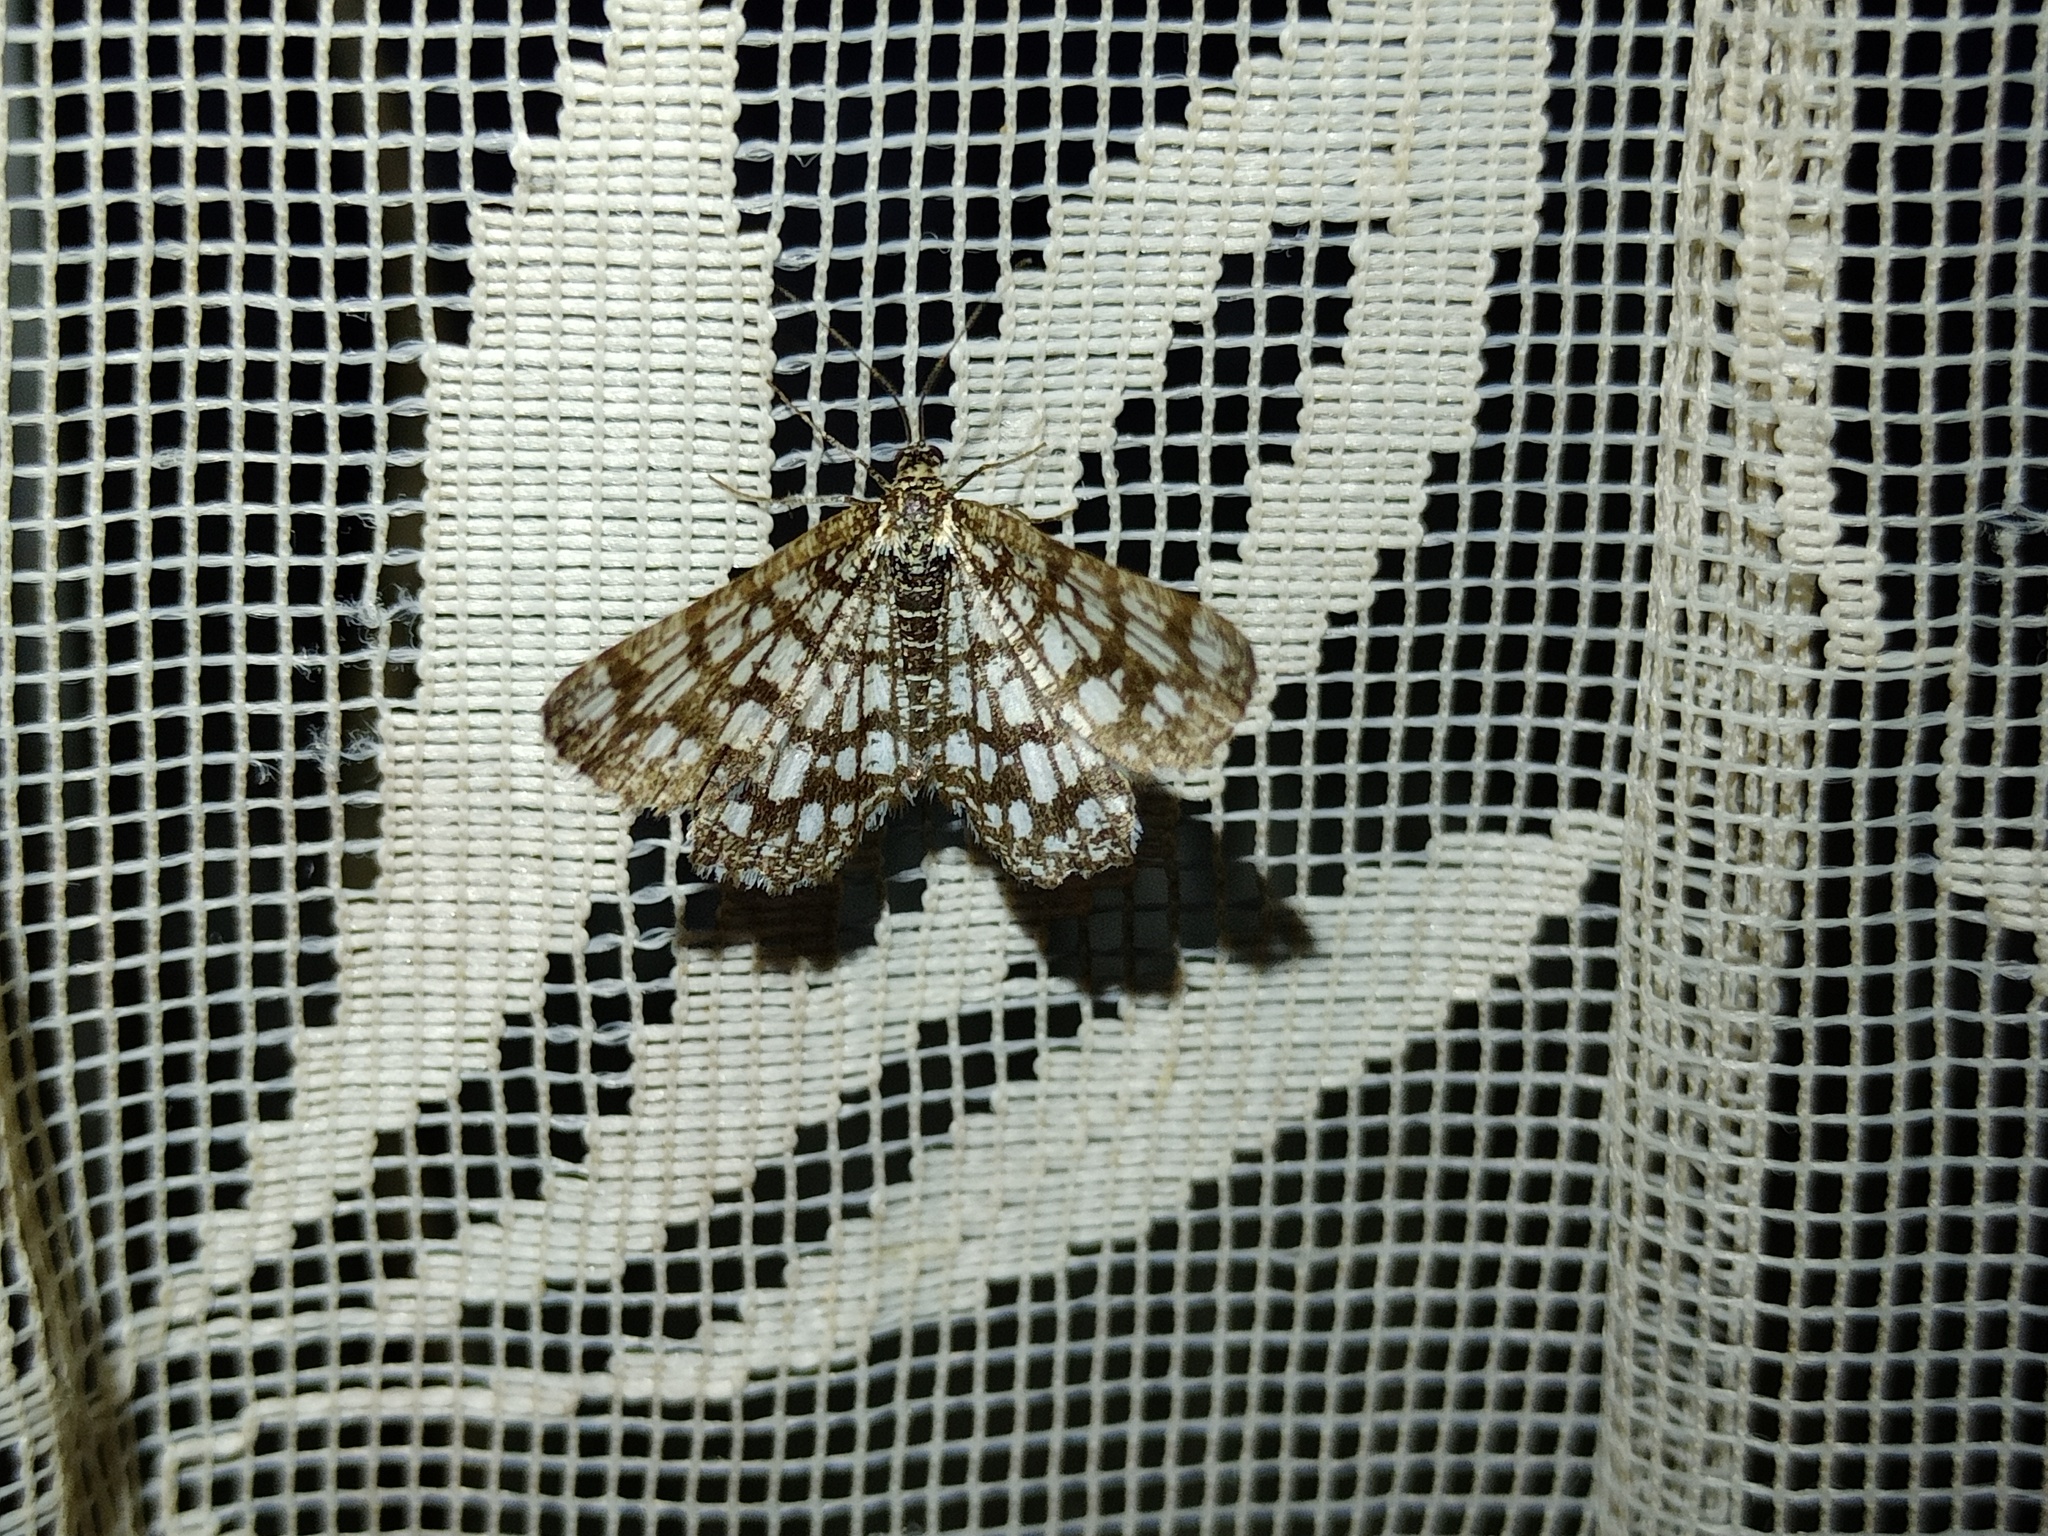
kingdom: Animalia
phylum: Arthropoda
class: Insecta
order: Lepidoptera
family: Geometridae
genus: Chiasmia
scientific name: Chiasmia clathrata
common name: Latticed heath
